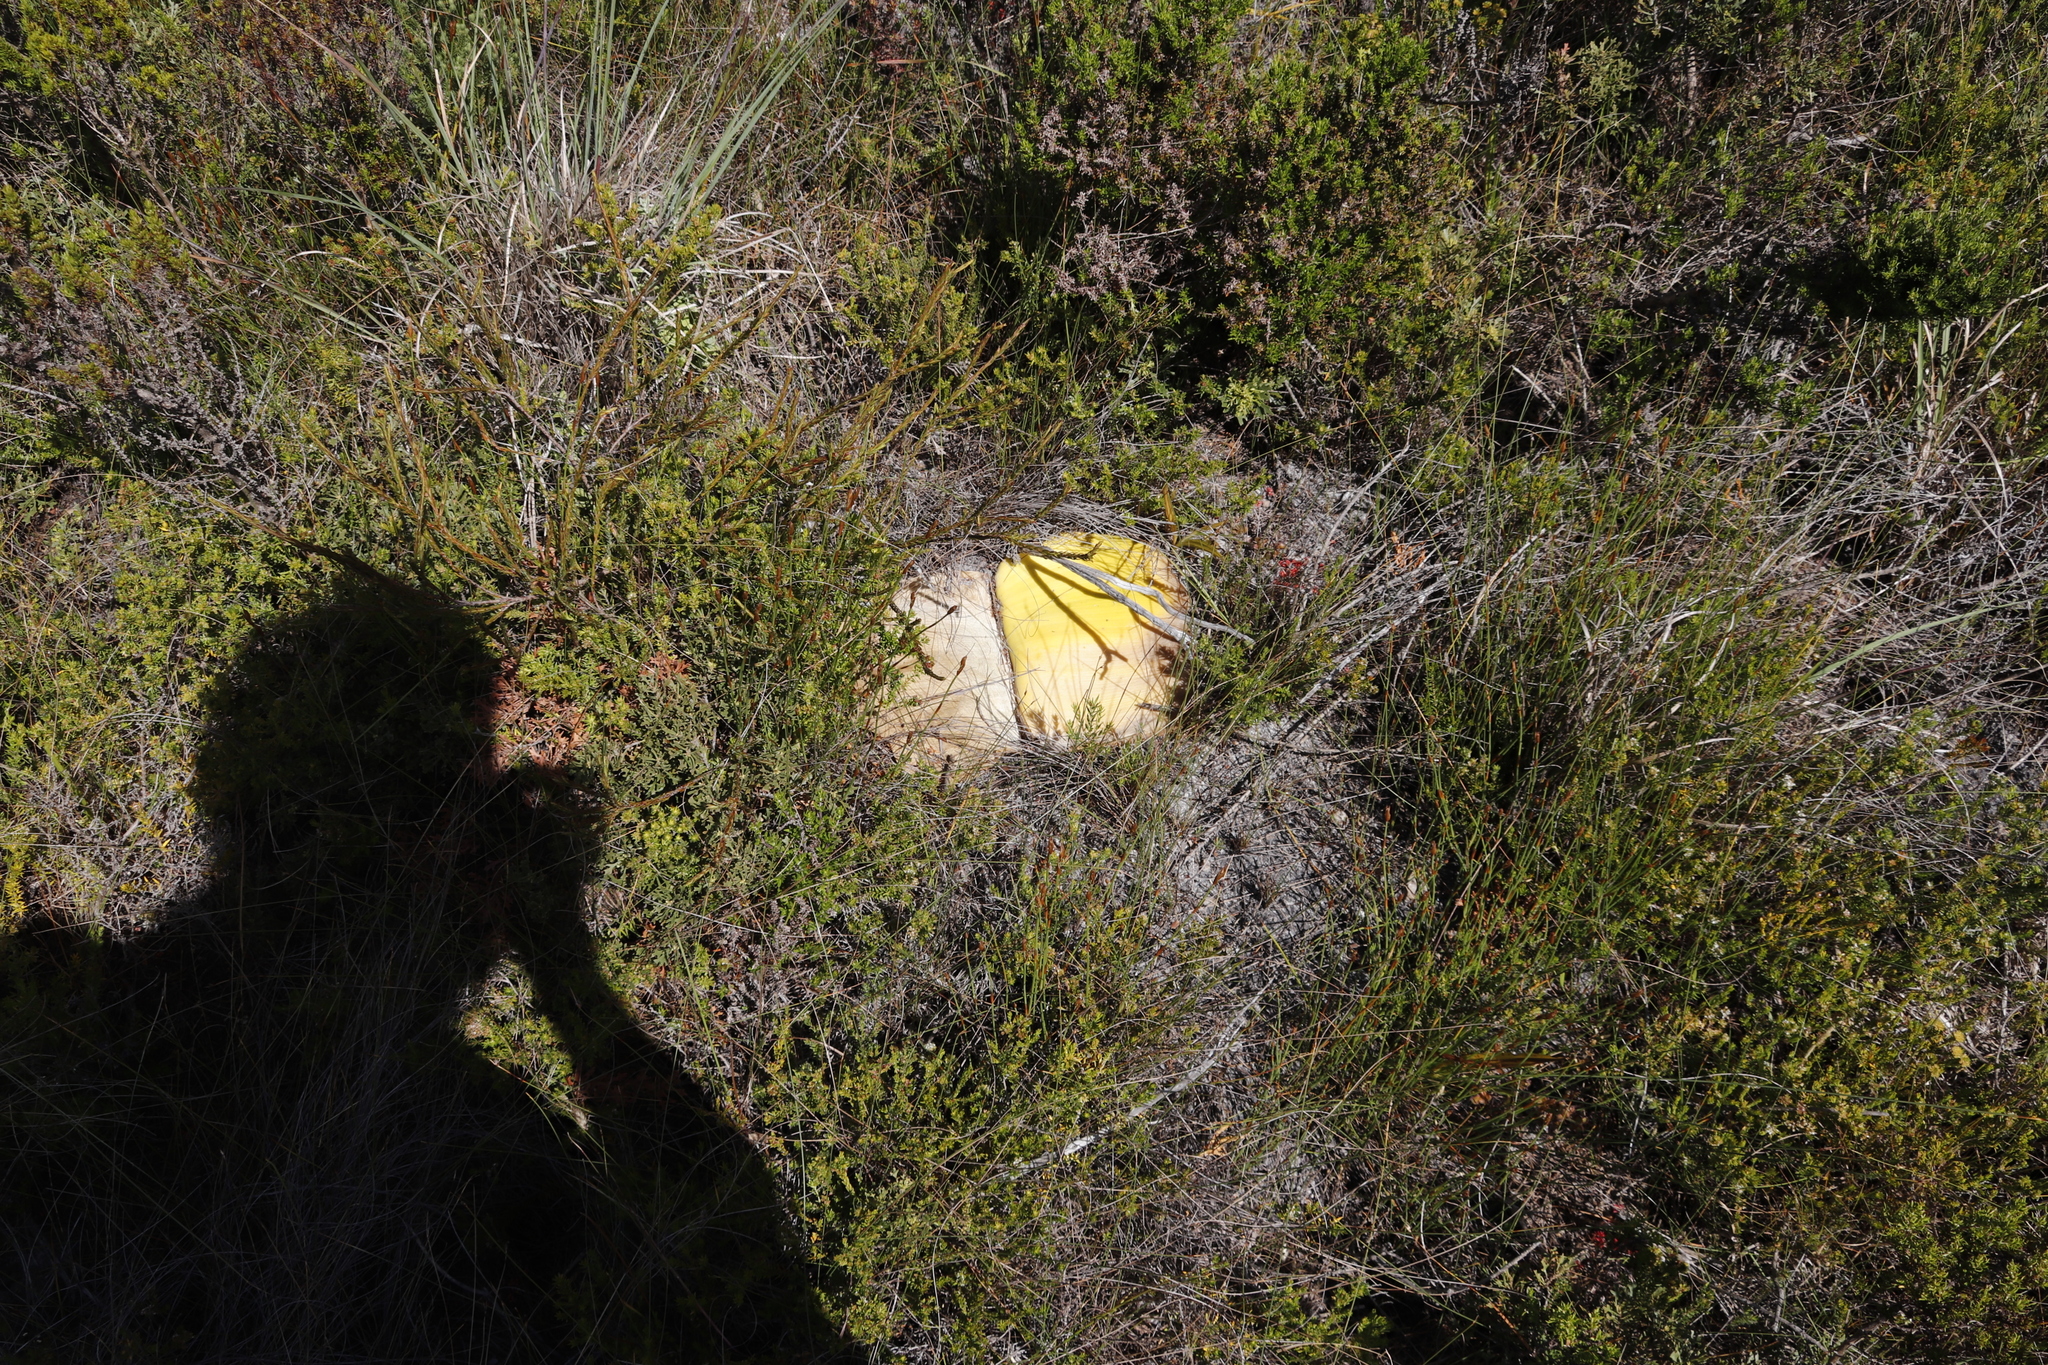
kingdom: Plantae
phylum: Tracheophyta
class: Liliopsida
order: Asparagales
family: Amaryllidaceae
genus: Haemanthus
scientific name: Haemanthus sanguineus
